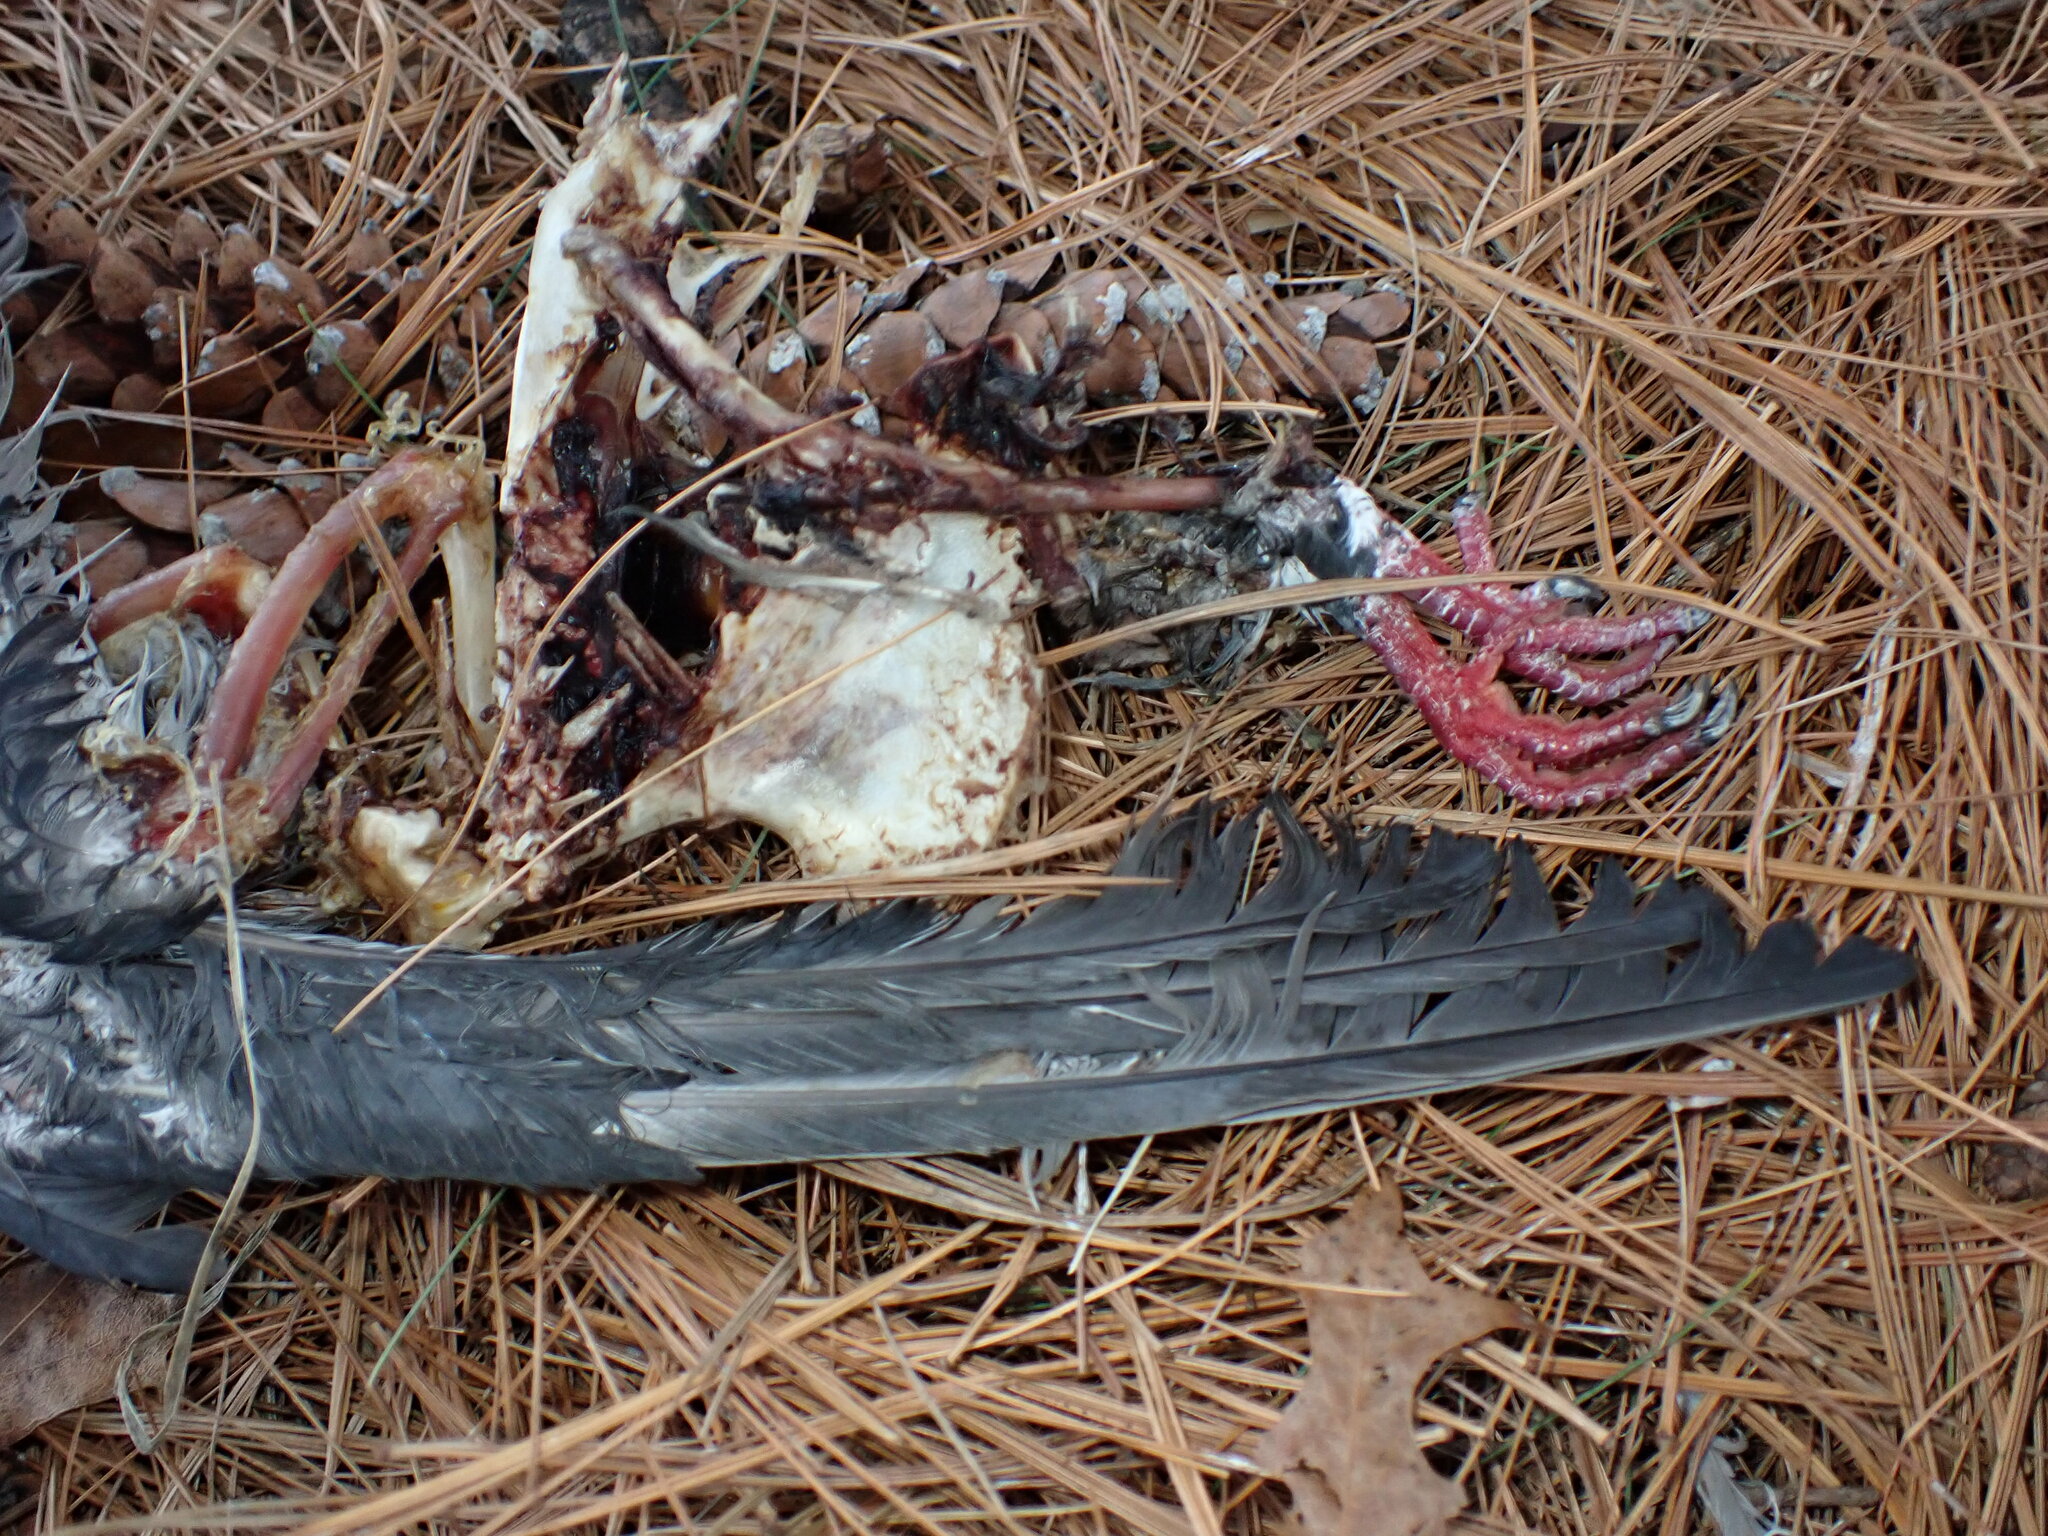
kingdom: Animalia
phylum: Chordata
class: Aves
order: Columbiformes
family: Columbidae
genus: Columba
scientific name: Columba livia
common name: Rock pigeon
